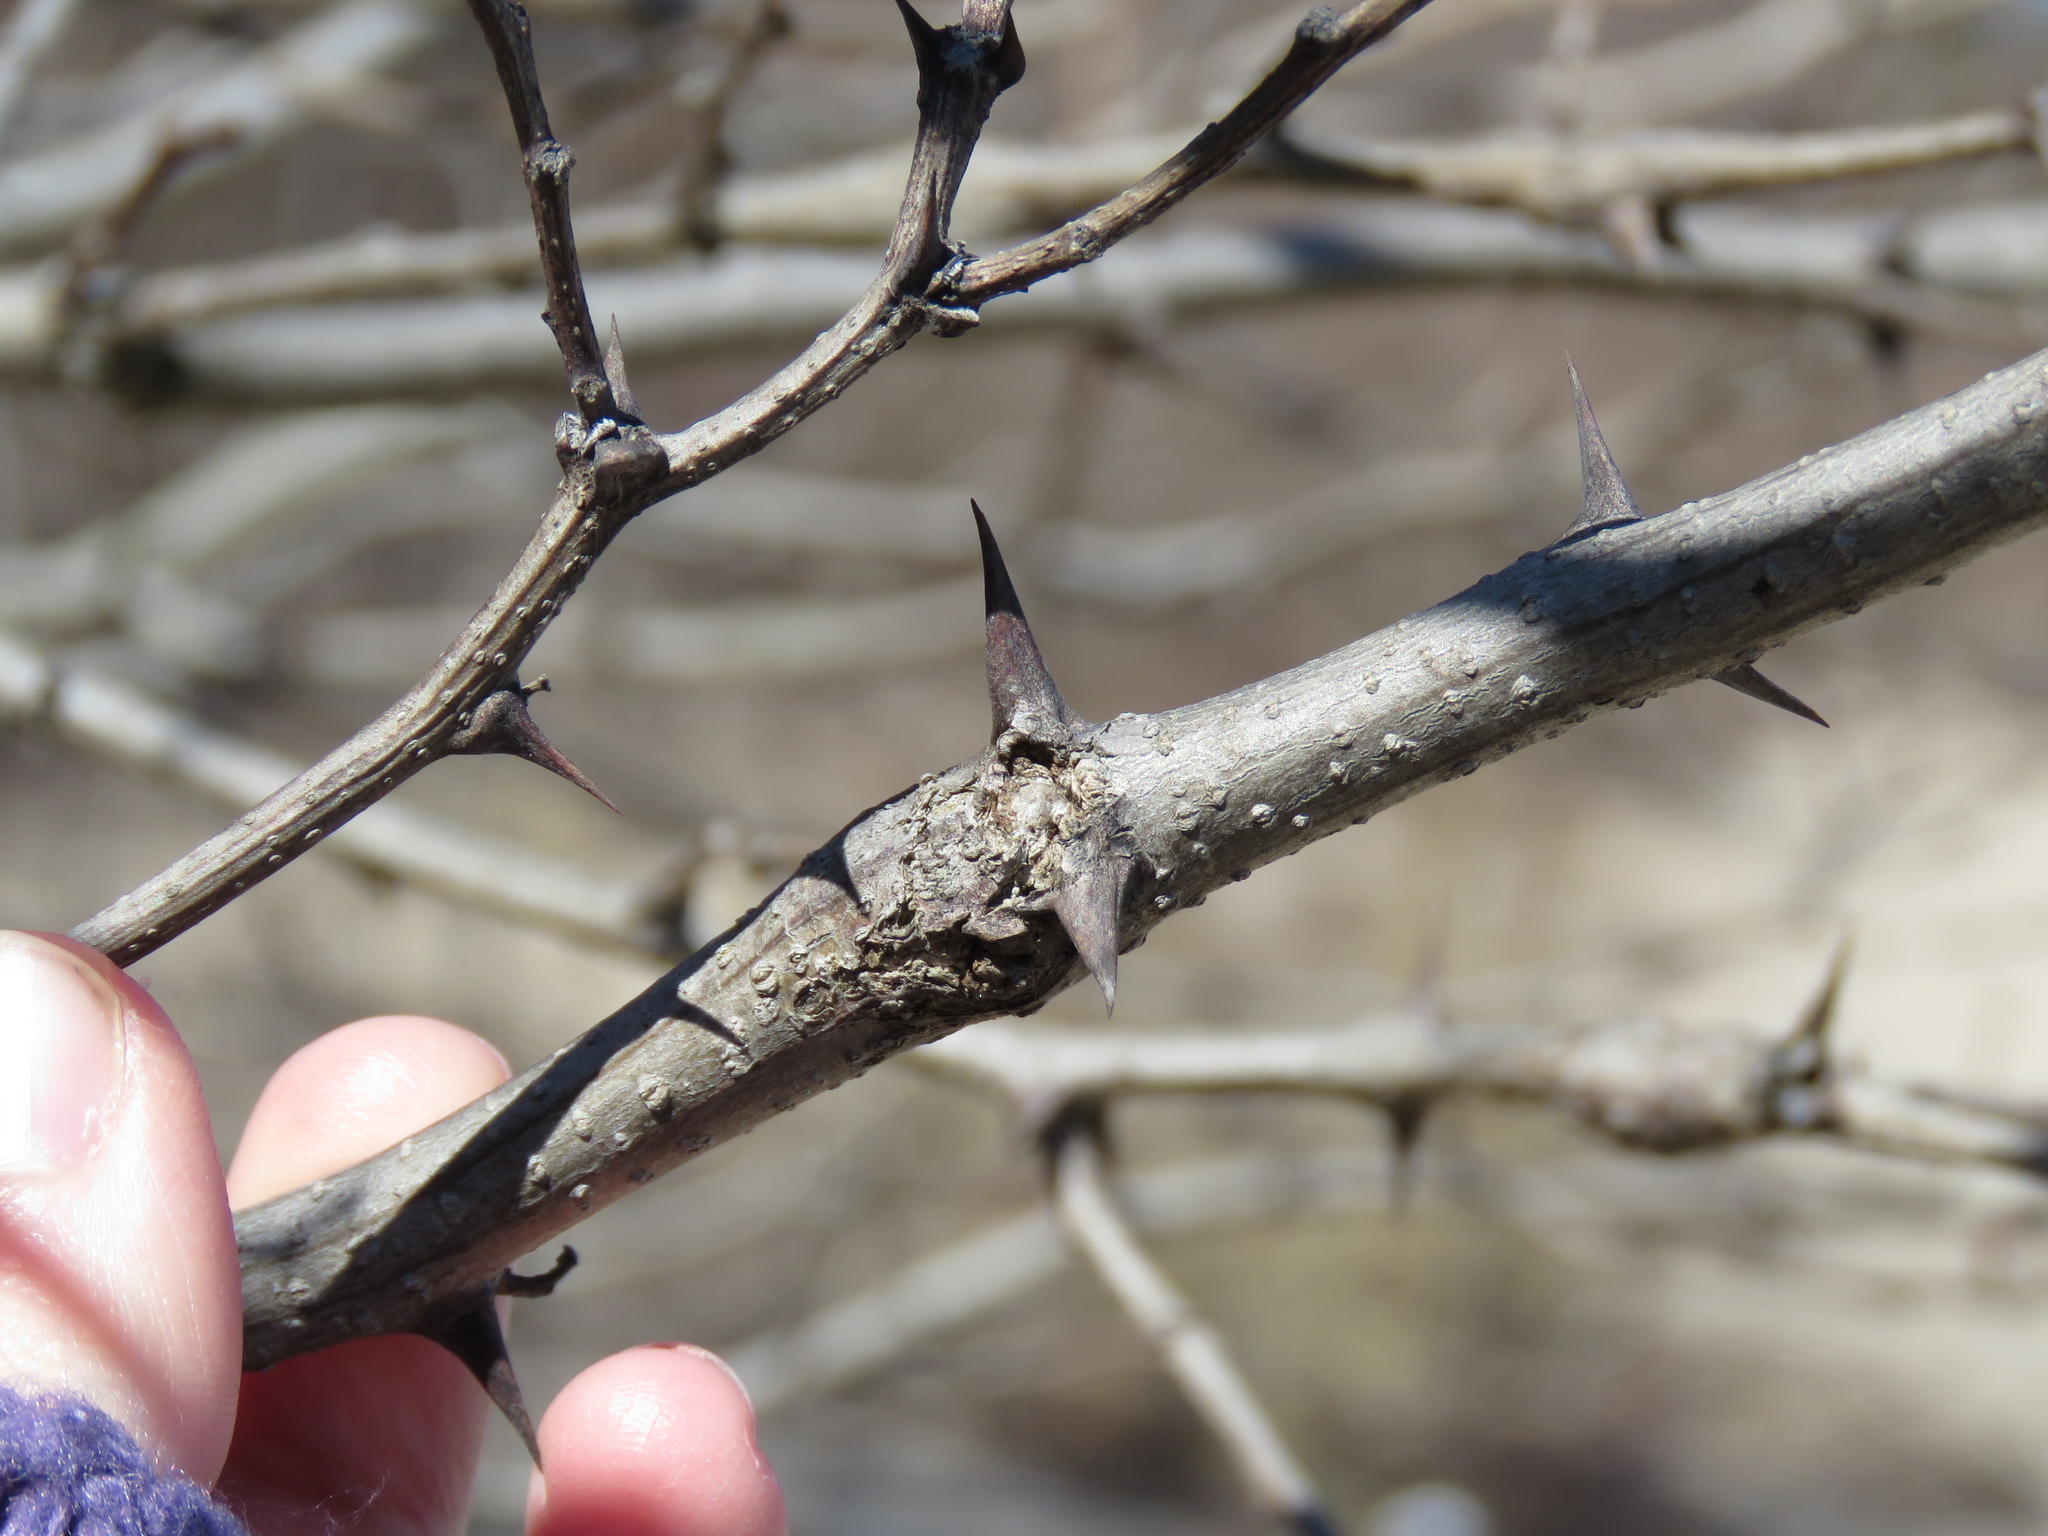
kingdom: Plantae
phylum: Tracheophyta
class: Magnoliopsida
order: Fabales
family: Fabaceae
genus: Robinia
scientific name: Robinia pseudoacacia
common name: Black locust
